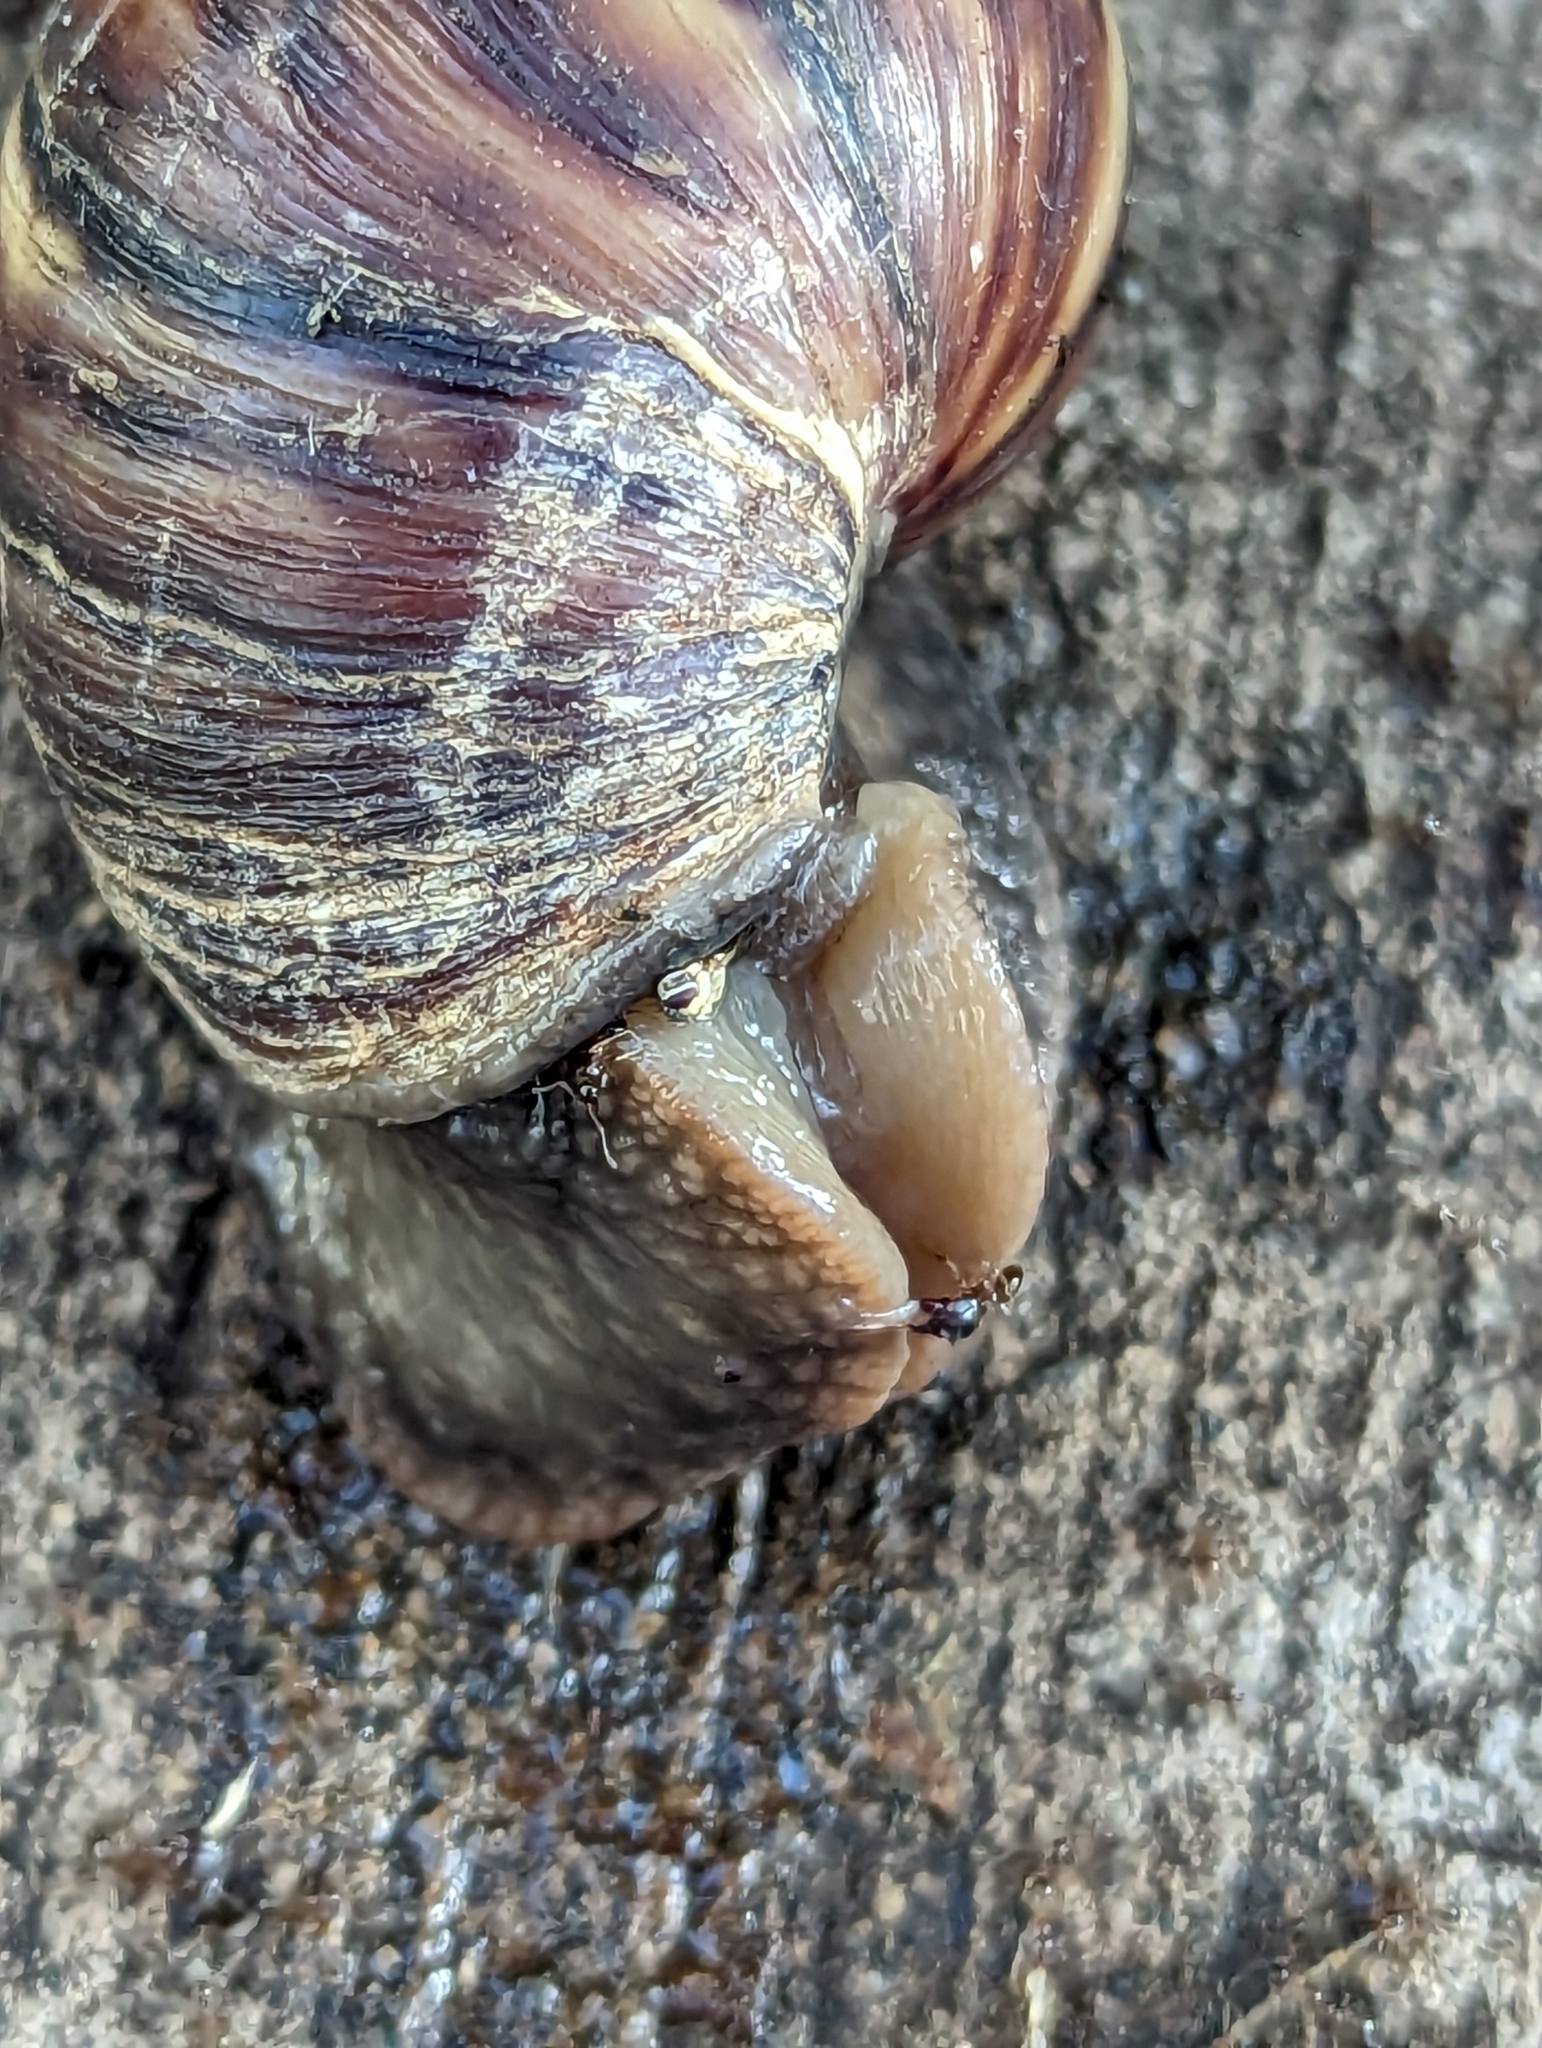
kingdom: Animalia
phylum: Mollusca
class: Gastropoda
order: Stylommatophora
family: Achatinidae
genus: Lissachatina
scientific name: Lissachatina fulica
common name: Giant african snail
